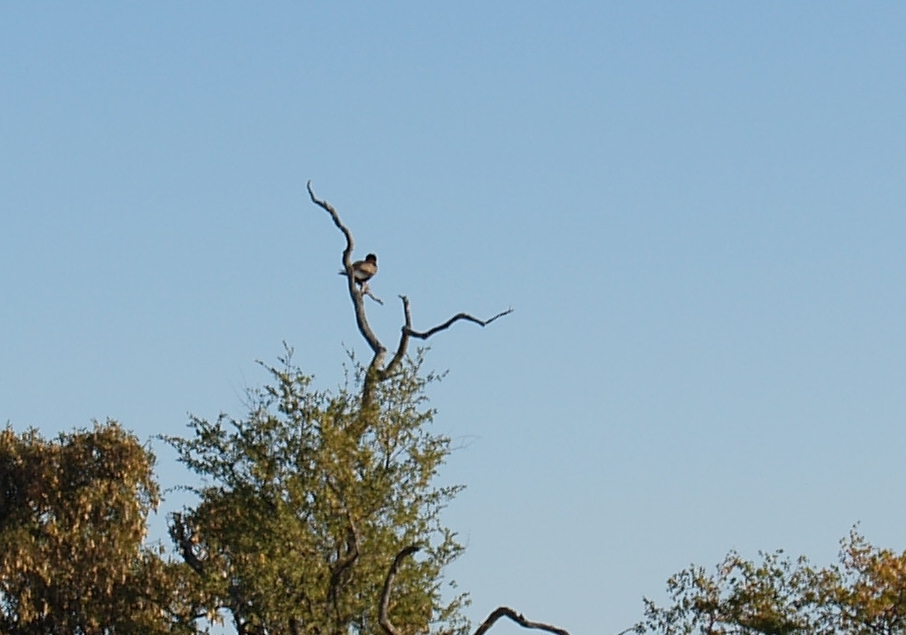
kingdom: Animalia
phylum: Chordata
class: Aves
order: Accipitriformes
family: Accipitridae
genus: Terathopius
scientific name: Terathopius ecaudatus
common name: Bateleur
